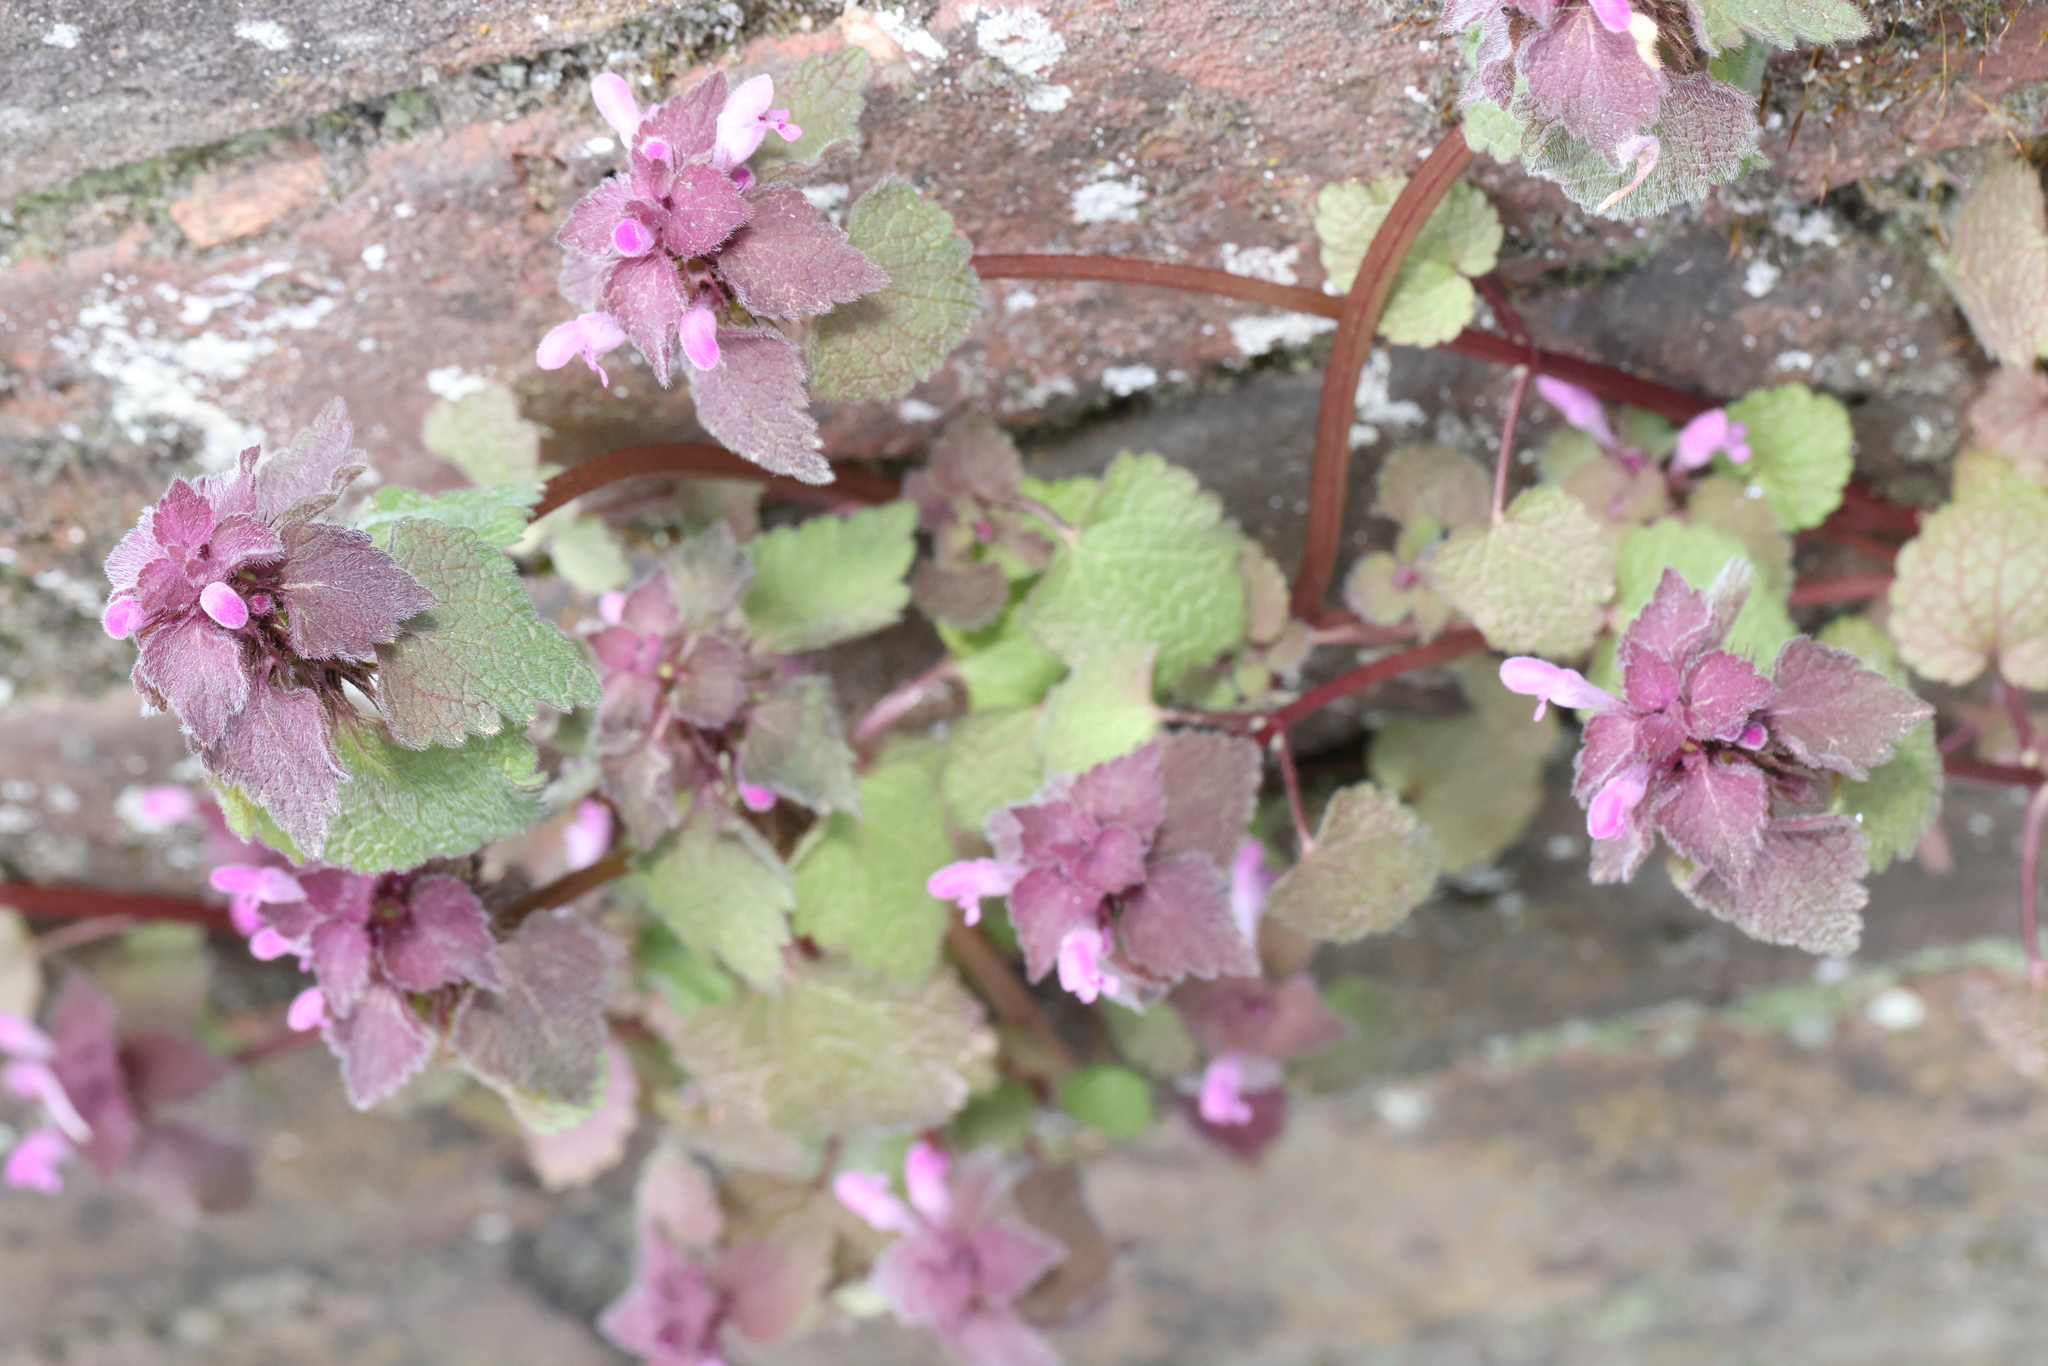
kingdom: Plantae
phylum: Tracheophyta
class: Magnoliopsida
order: Lamiales
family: Lamiaceae
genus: Lamium
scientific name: Lamium purpureum
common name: Red dead-nettle
